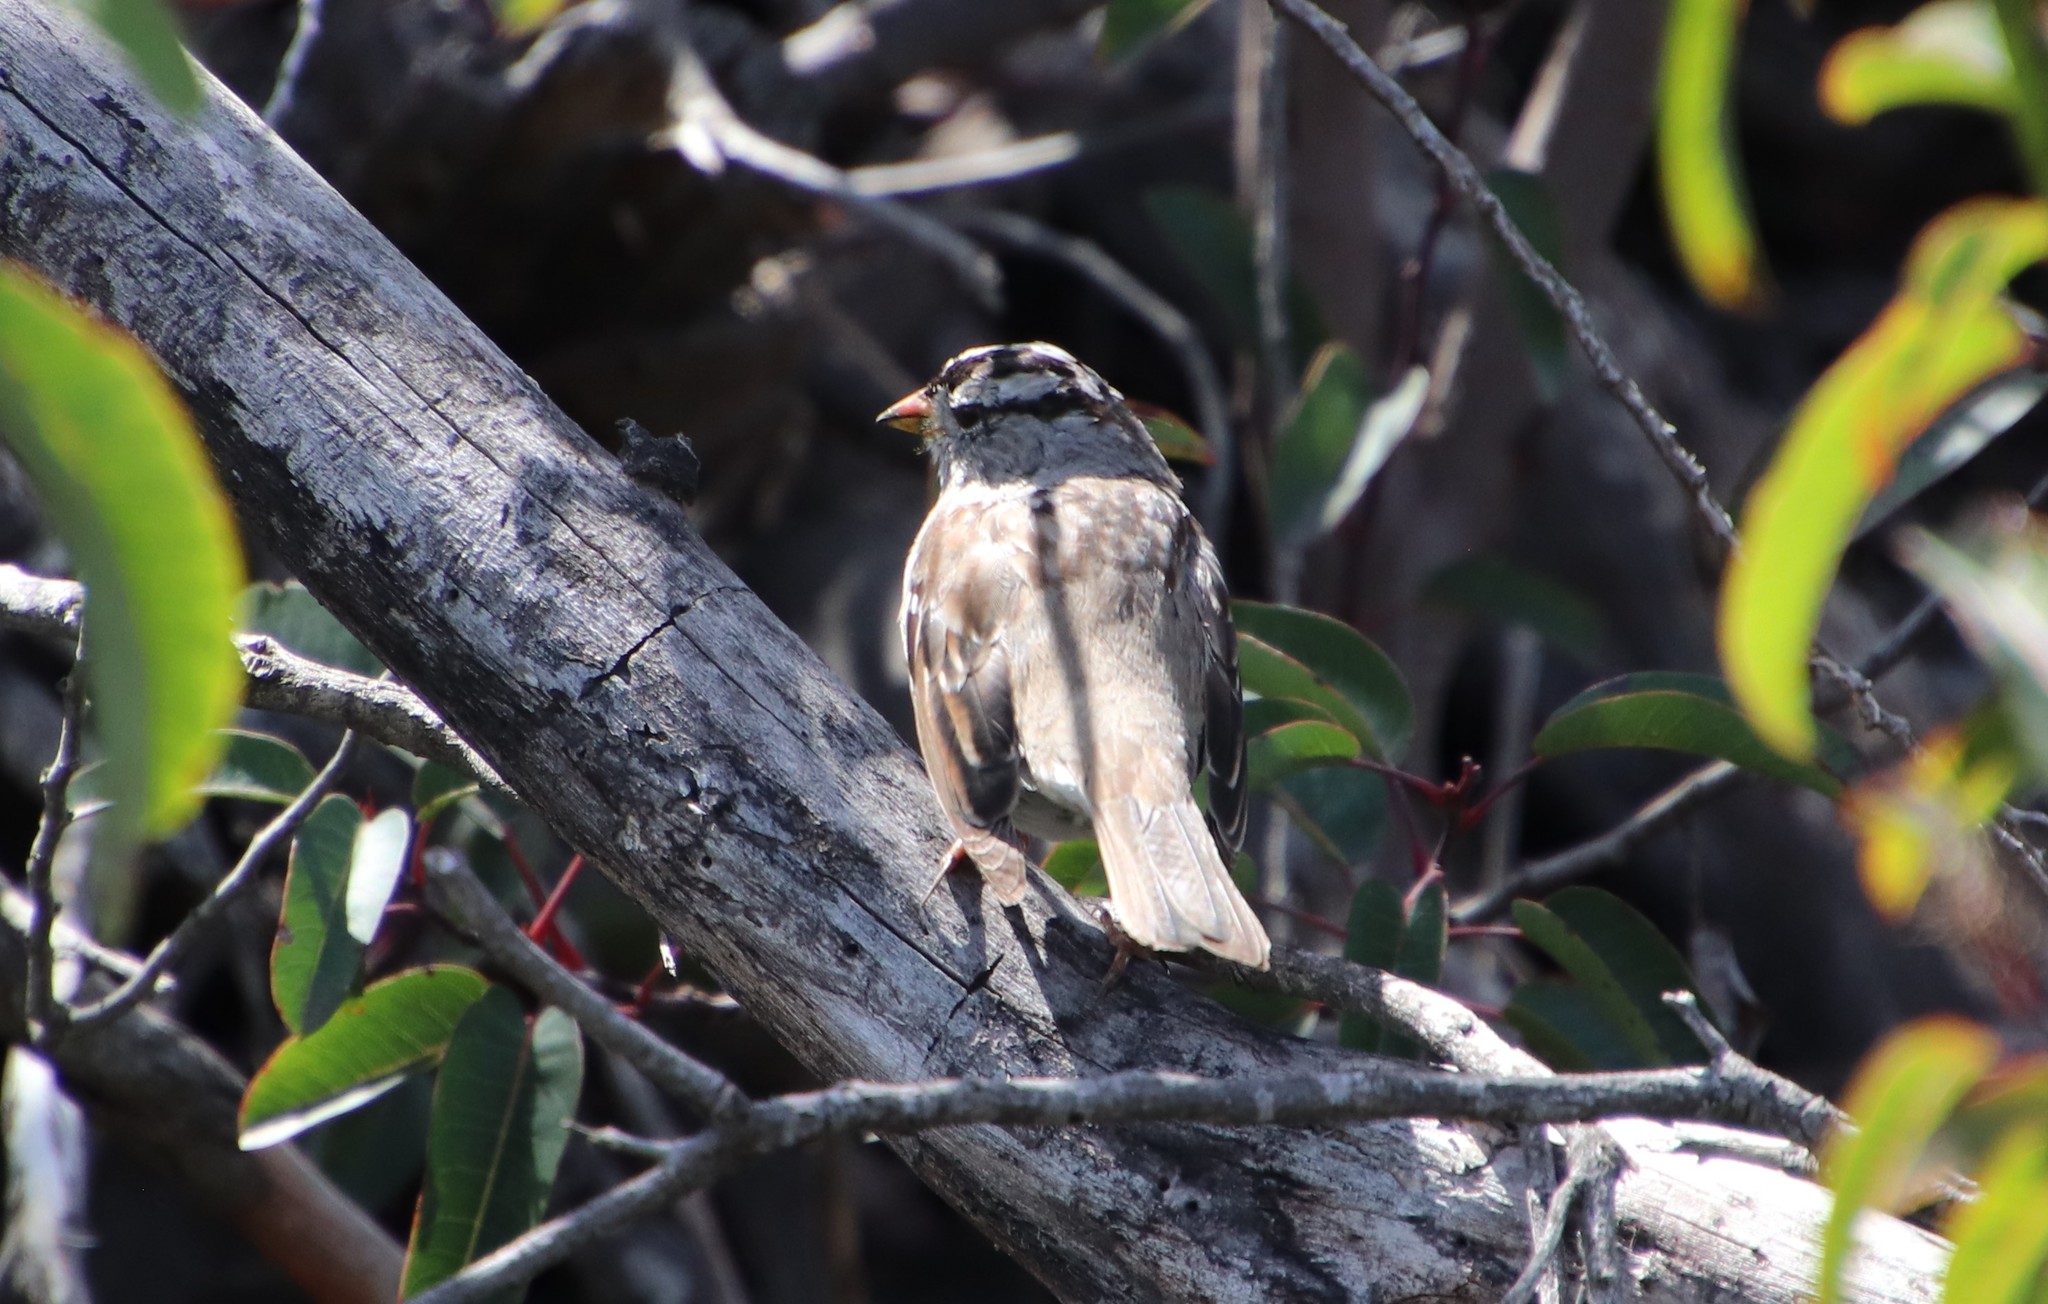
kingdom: Animalia
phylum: Chordata
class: Aves
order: Passeriformes
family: Passerellidae
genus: Zonotrichia
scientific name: Zonotrichia leucophrys
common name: White-crowned sparrow
